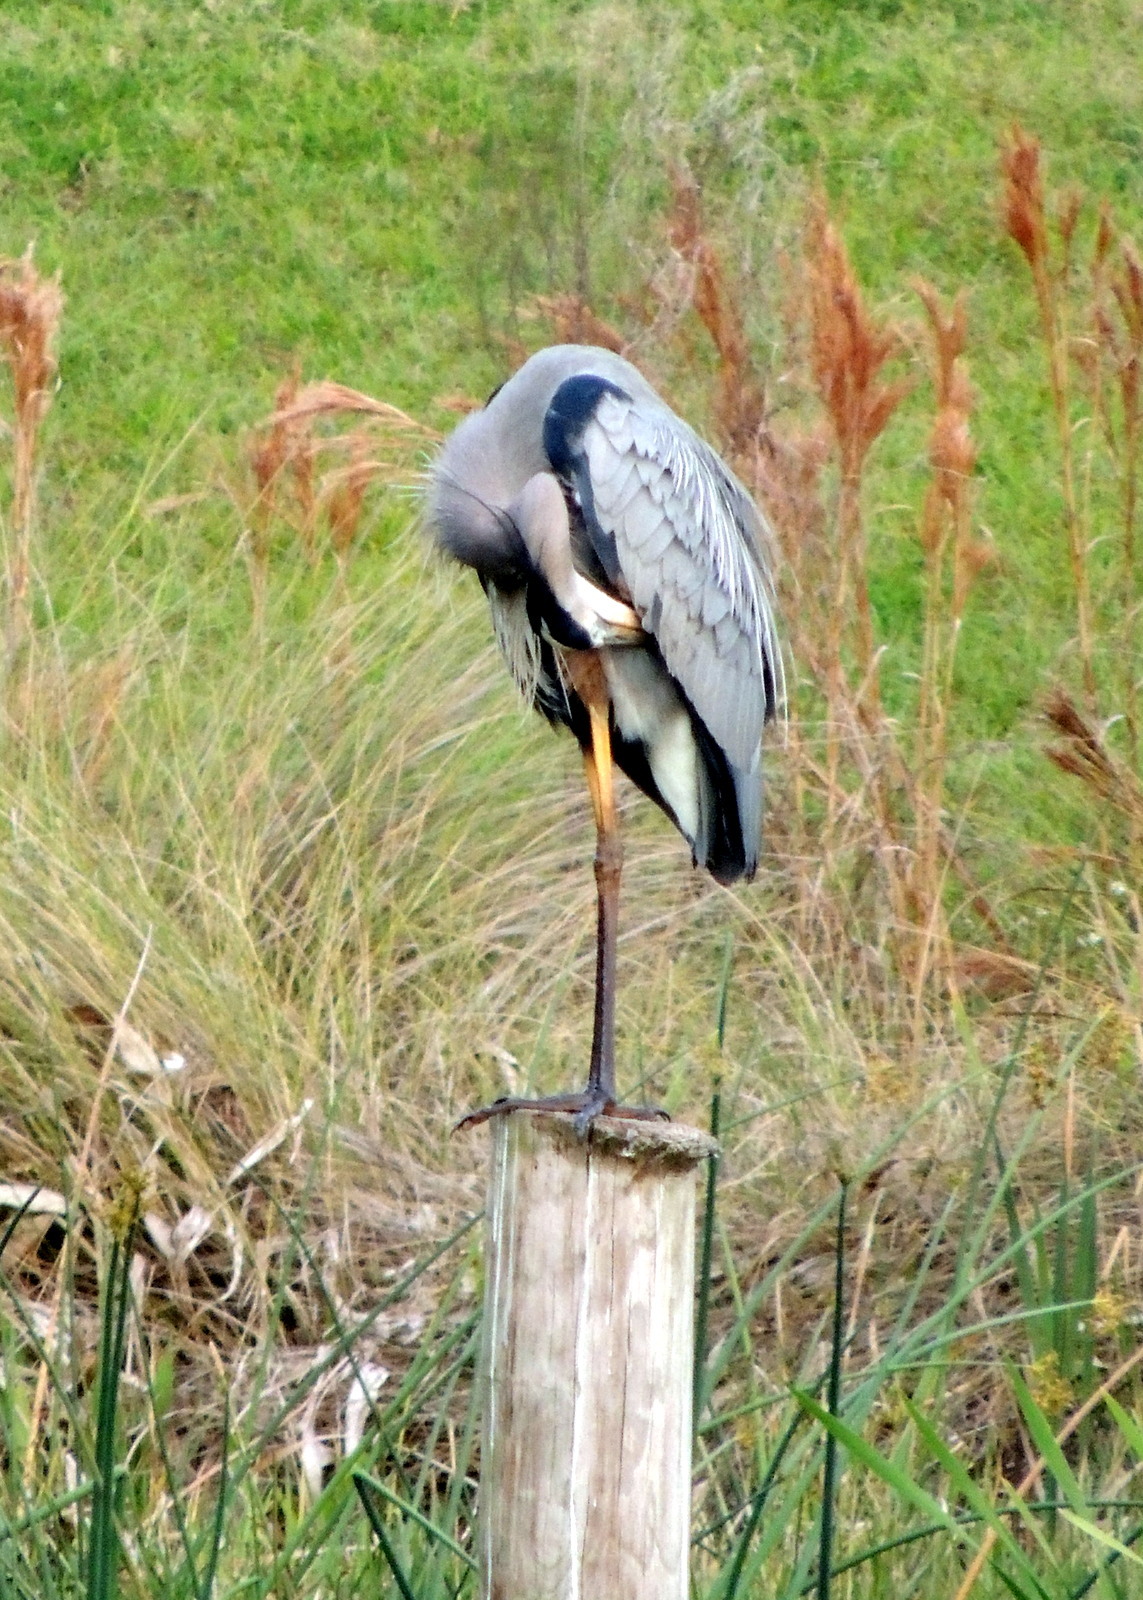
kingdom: Animalia
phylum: Chordata
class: Aves
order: Pelecaniformes
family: Ardeidae
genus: Ardea
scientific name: Ardea herodias
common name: Great blue heron
